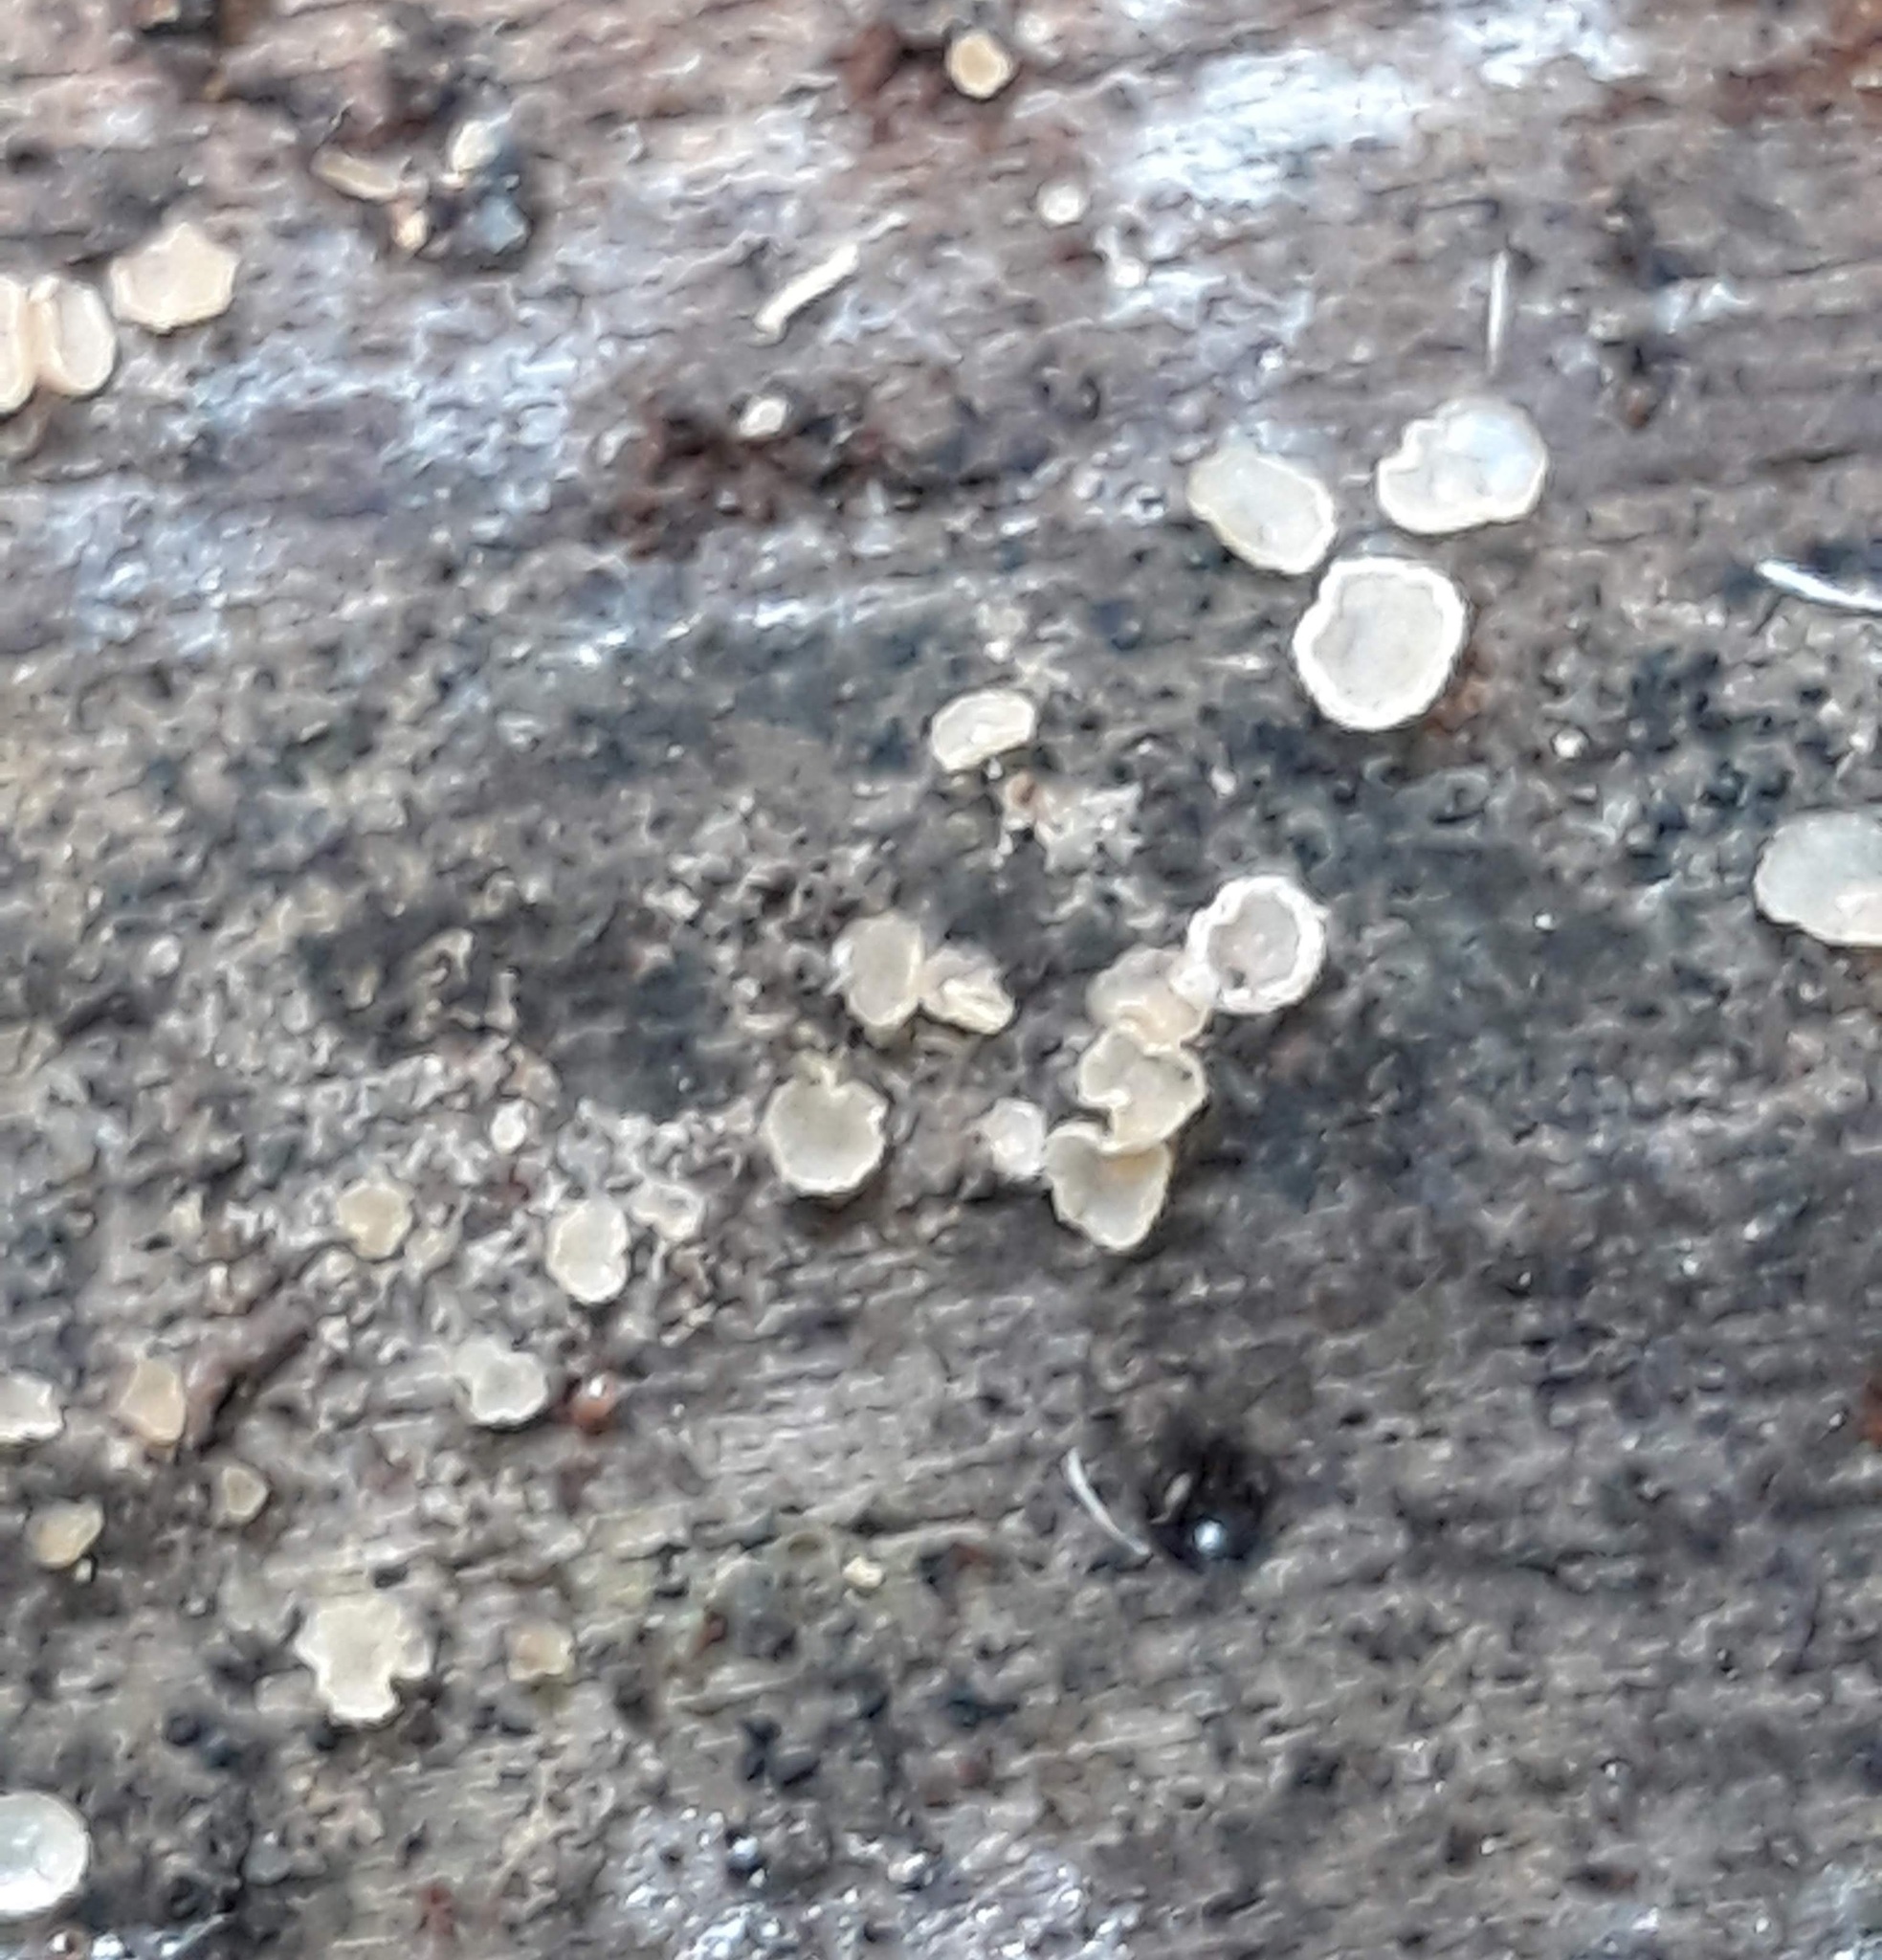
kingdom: Fungi
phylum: Basidiomycota
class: Agaricomycetes
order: Russulales
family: Stereaceae
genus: Acanthophysium
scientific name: Acanthophysium oakesii
